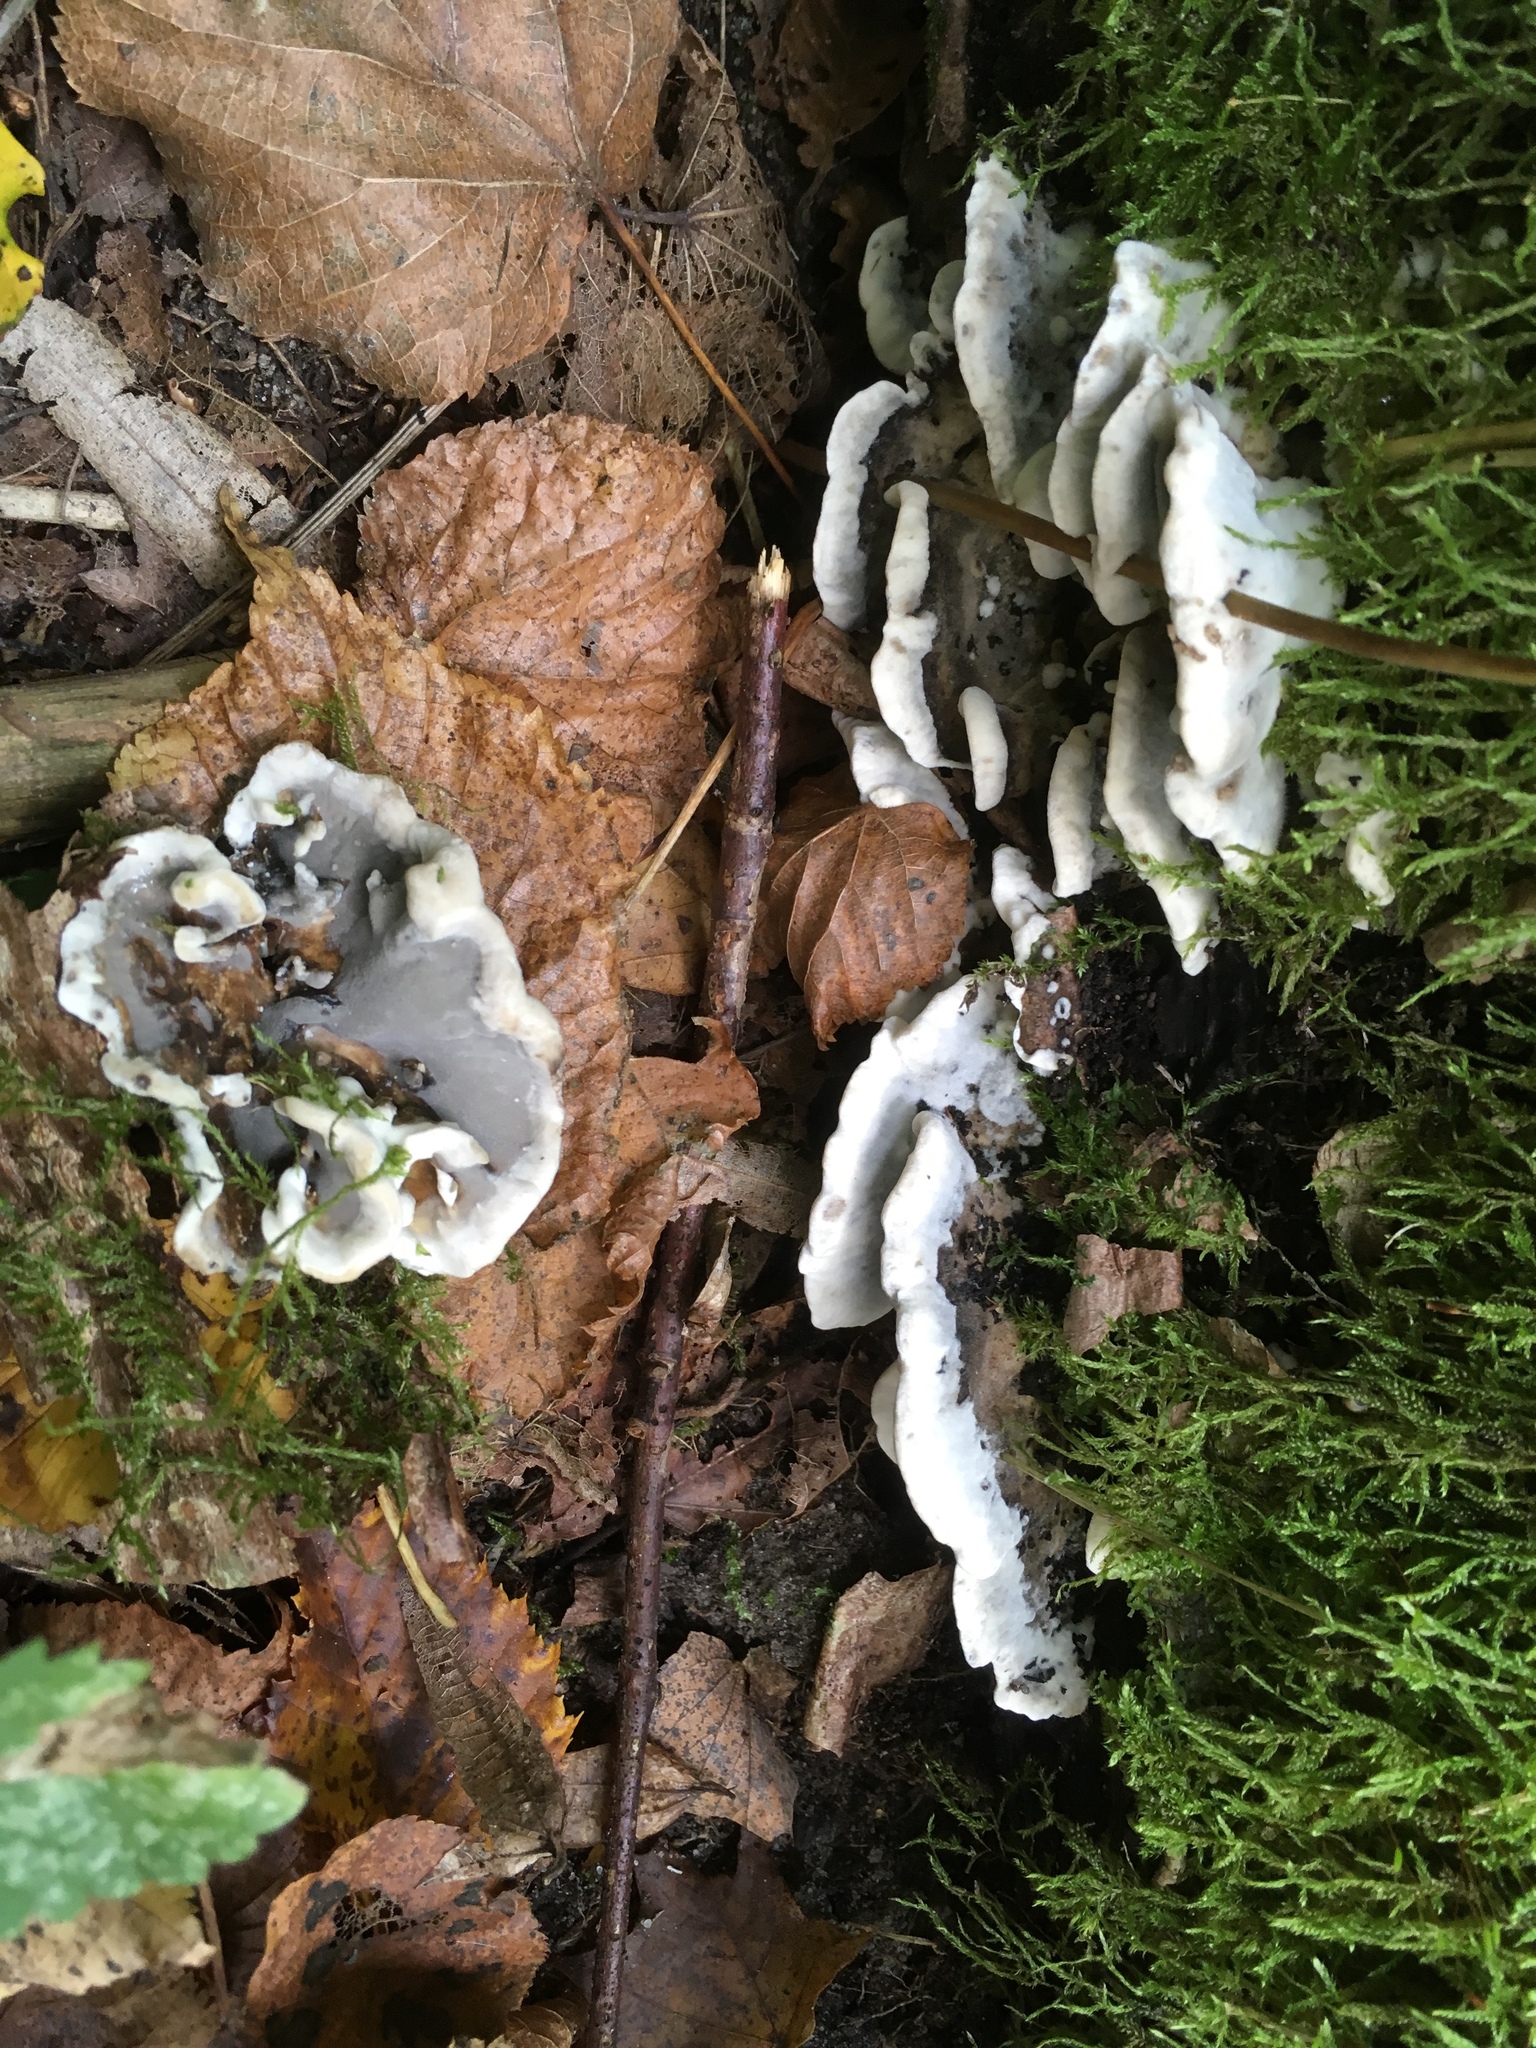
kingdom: Fungi
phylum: Basidiomycota
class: Agaricomycetes
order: Polyporales
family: Phanerochaetaceae
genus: Bjerkandera
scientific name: Bjerkandera adusta
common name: Smoky bracket
